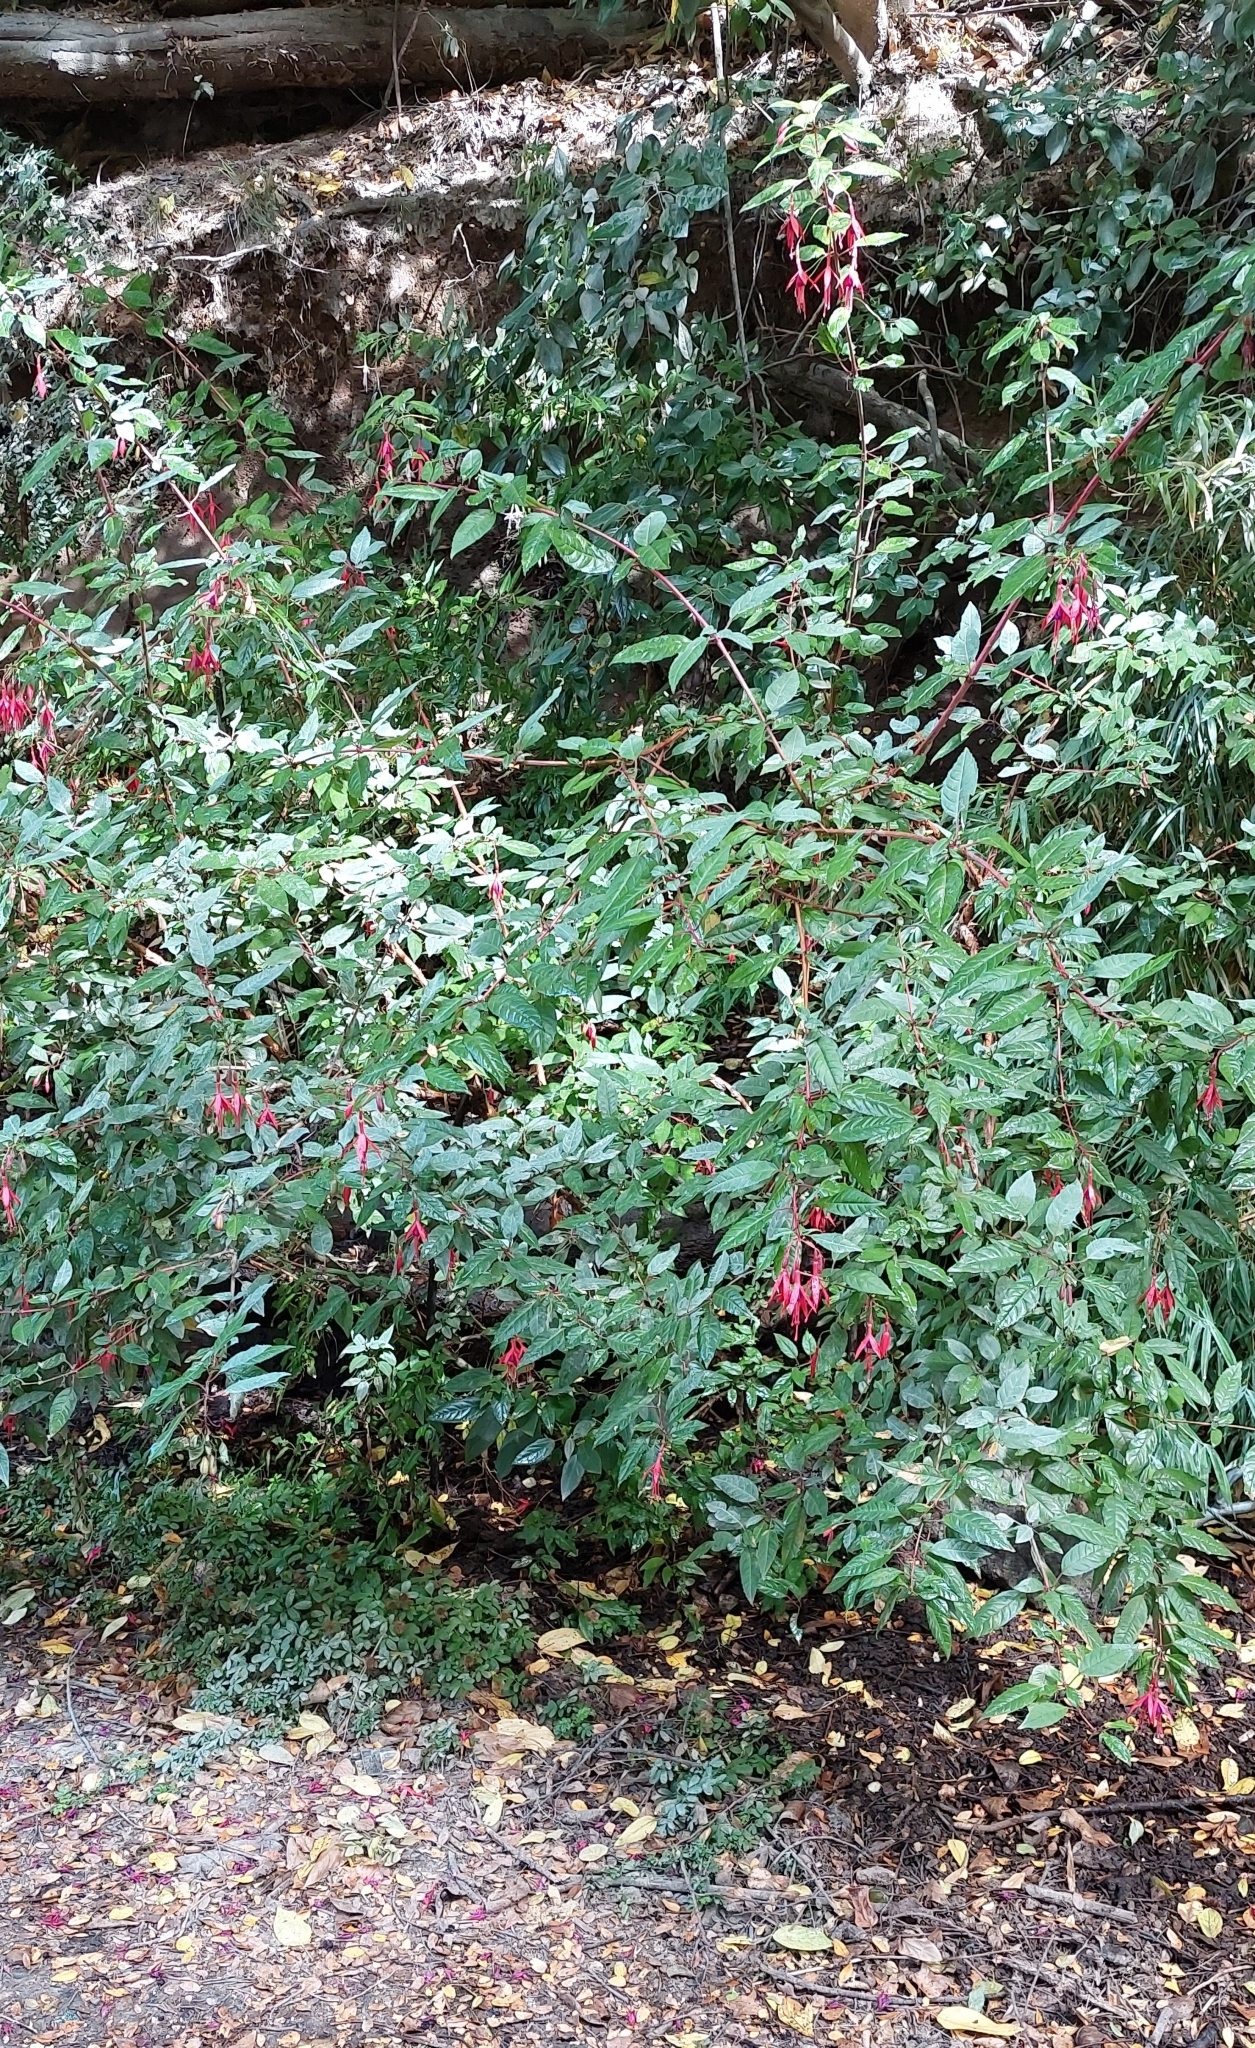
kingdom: Plantae
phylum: Tracheophyta
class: Magnoliopsida
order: Myrtales
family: Onagraceae
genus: Fuchsia
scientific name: Fuchsia magellanica
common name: Hardy fuchsia
